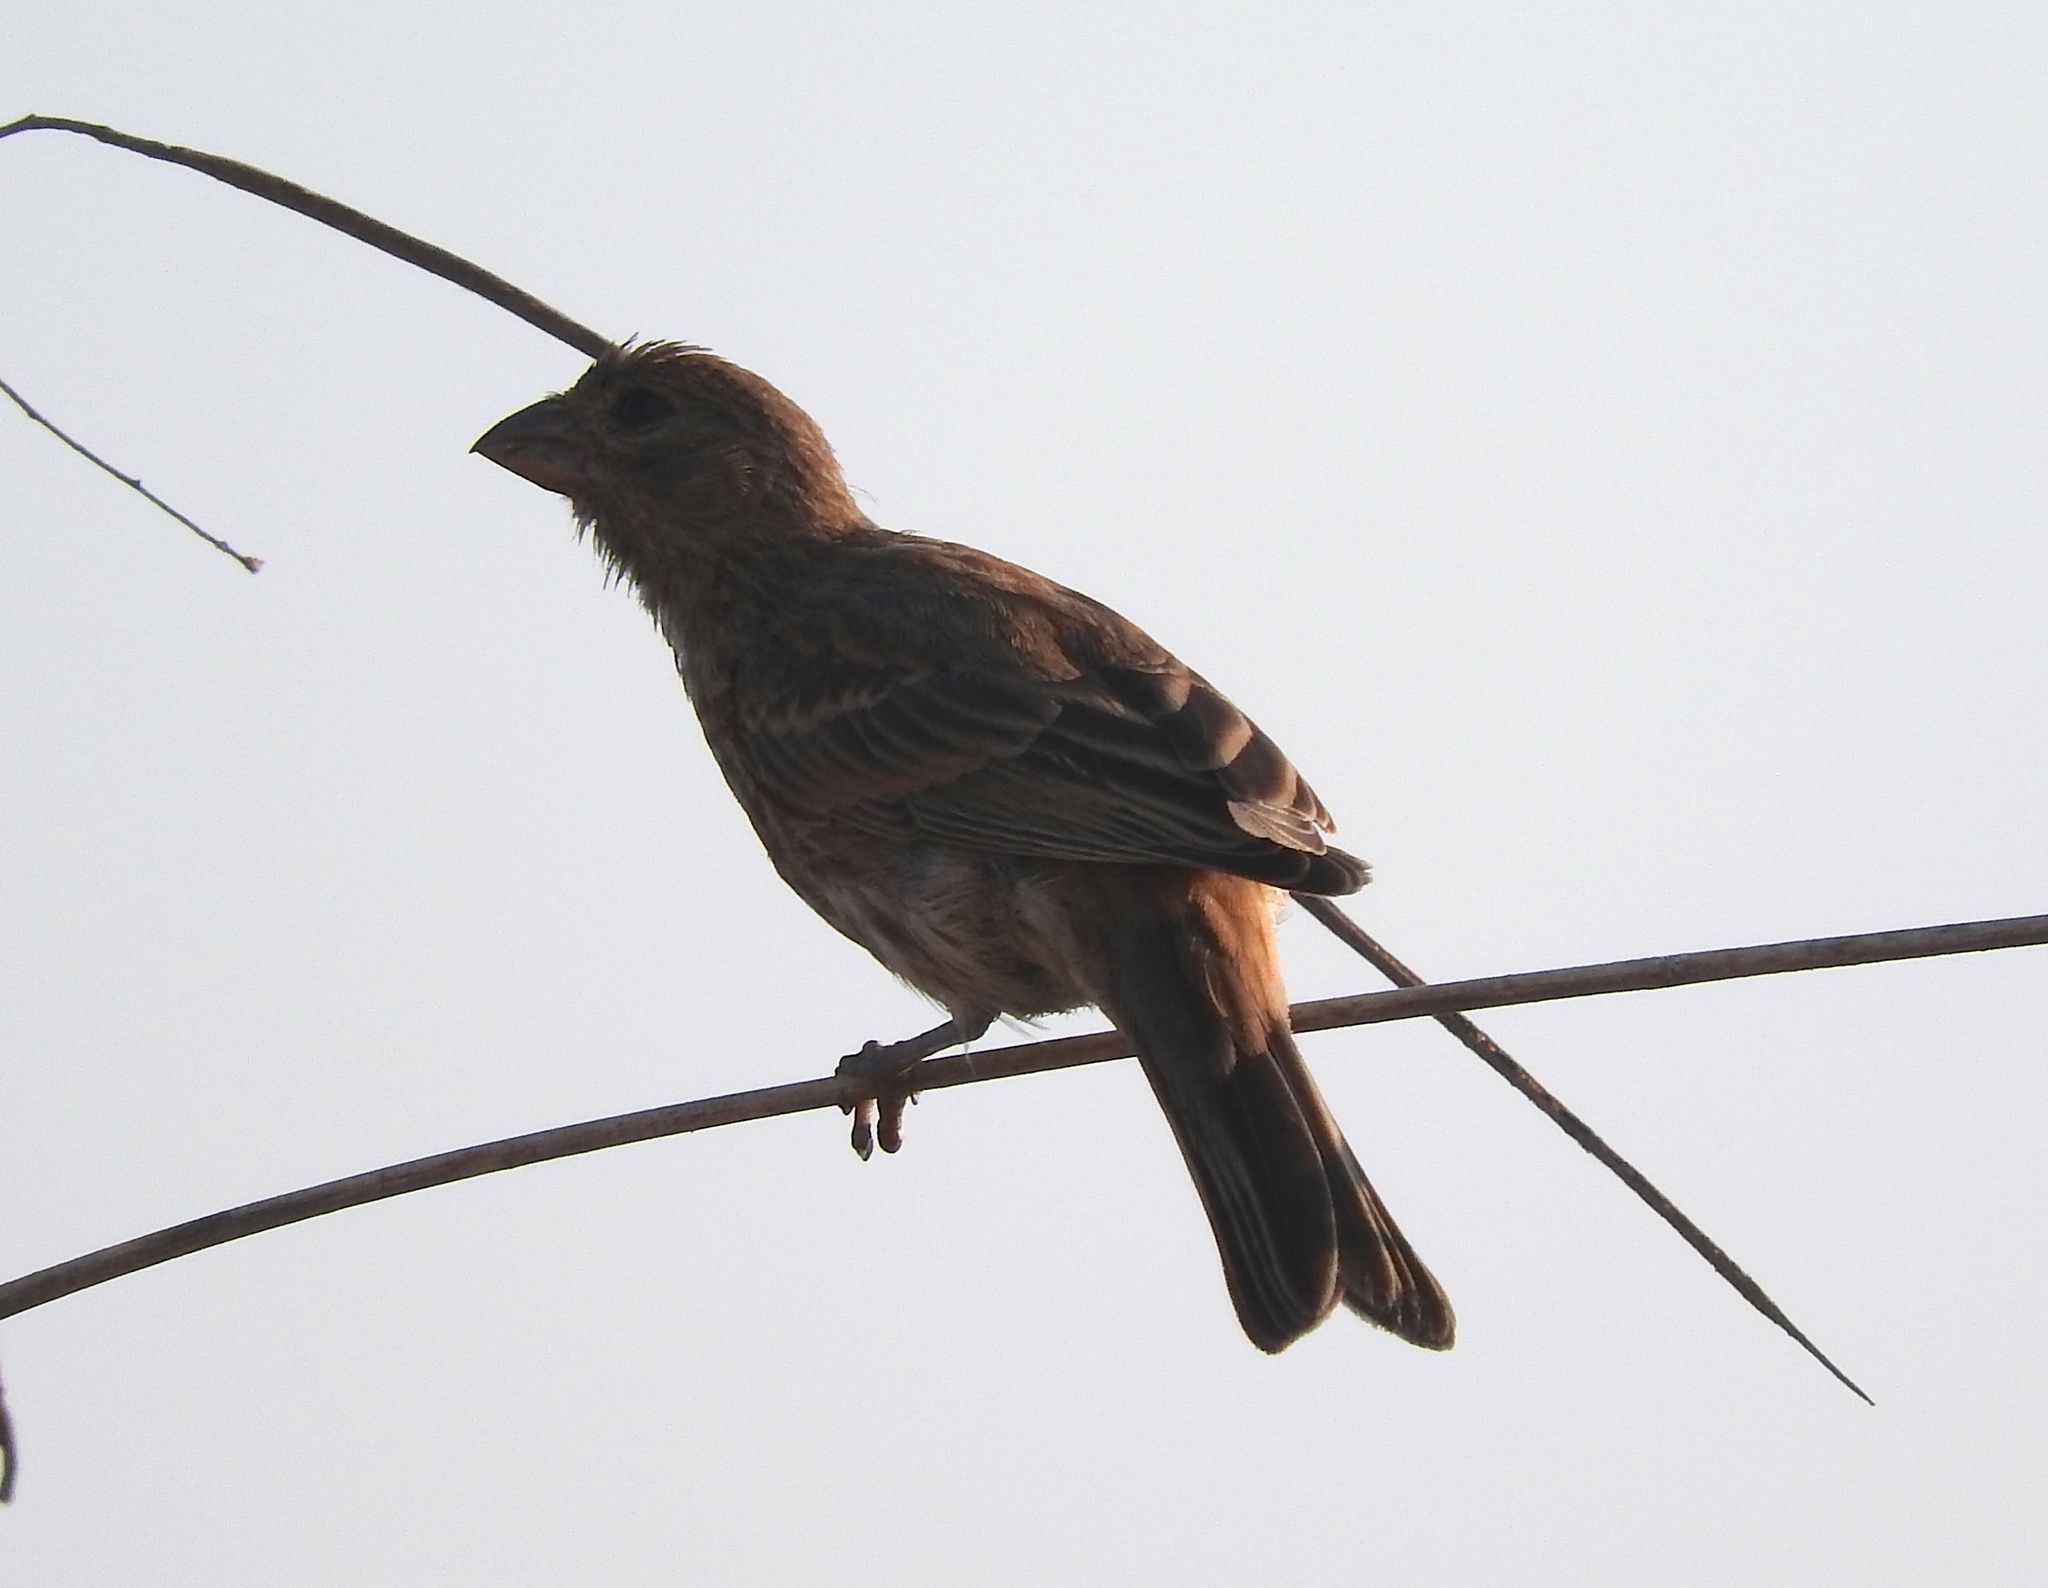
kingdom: Animalia
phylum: Chordata
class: Aves
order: Passeriformes
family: Fringillidae
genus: Haemorhous
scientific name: Haemorhous mexicanus
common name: House finch
